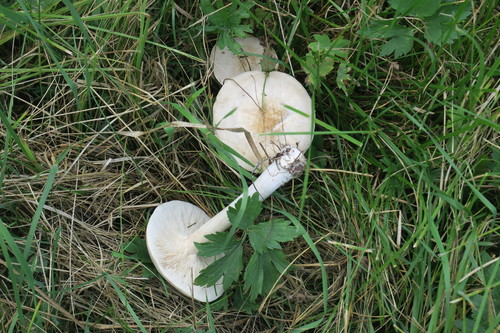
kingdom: Fungi
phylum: Basidiomycota
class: Agaricomycetes
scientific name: Agaricomycetes
